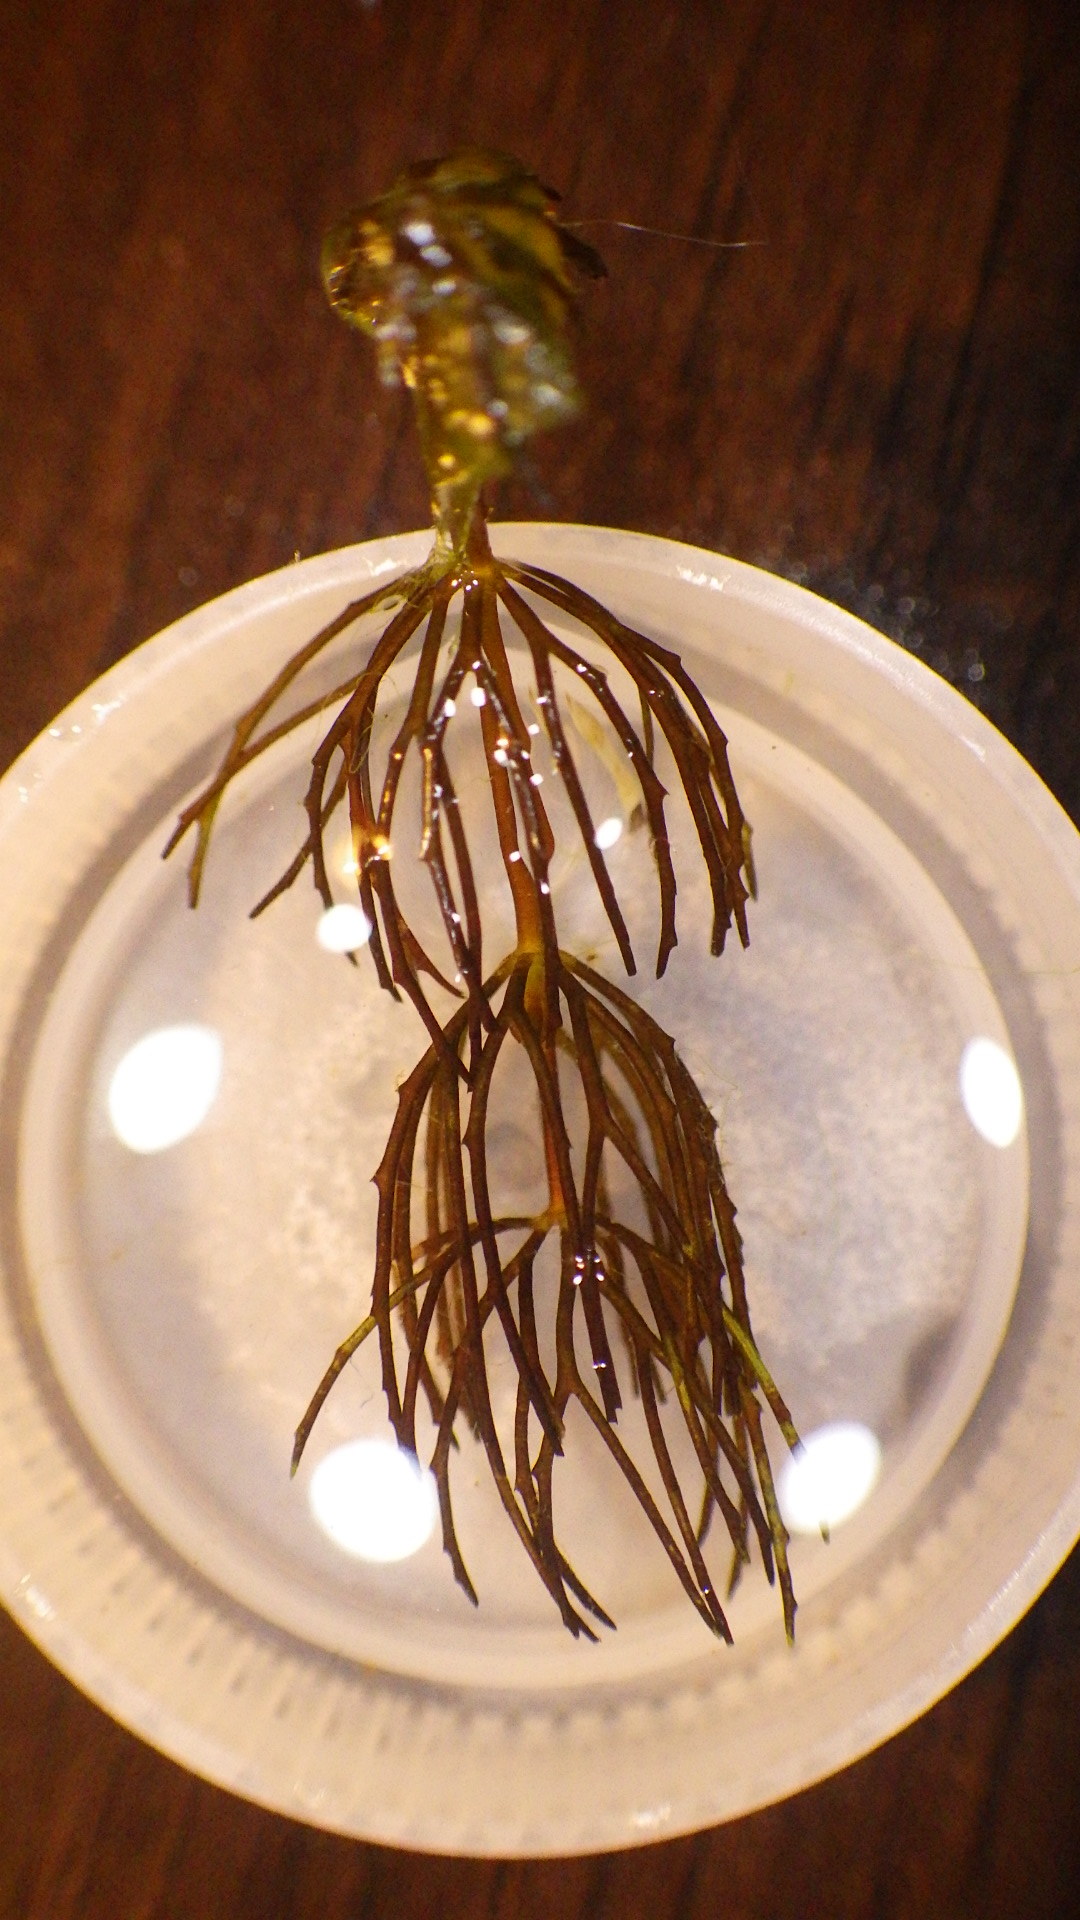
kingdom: Plantae
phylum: Tracheophyta
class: Magnoliopsida
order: Ceratophyllales
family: Ceratophyllaceae
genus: Ceratophyllum
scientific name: Ceratophyllum demersum
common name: Rigid hornwort
